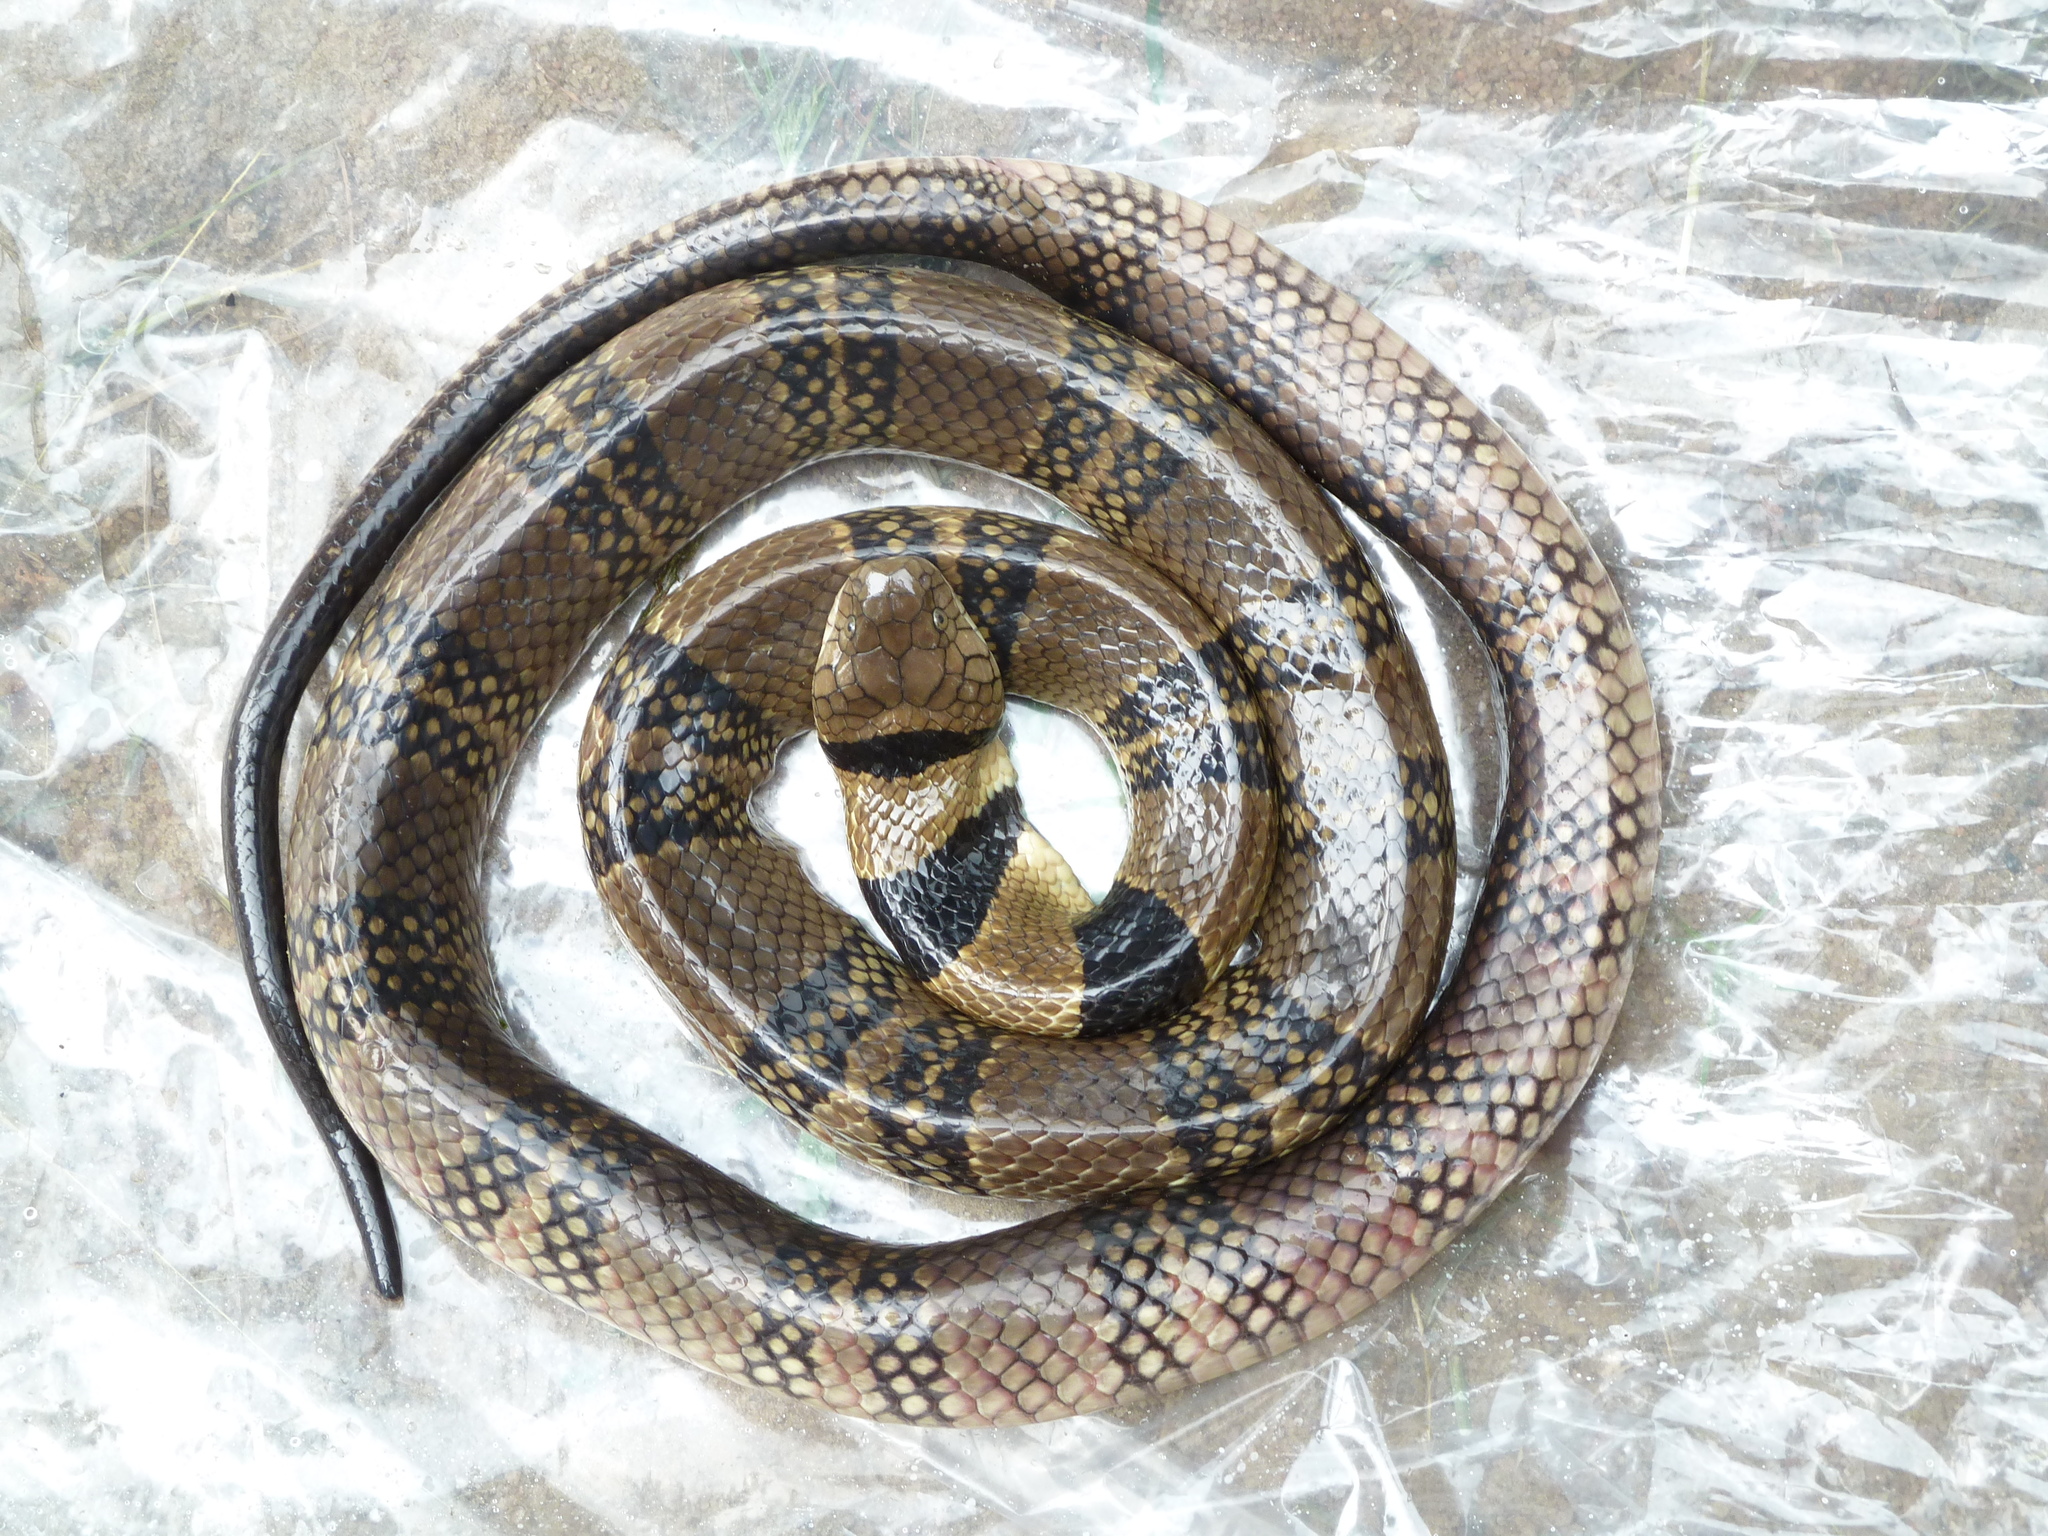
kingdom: Animalia
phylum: Chordata
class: Squamata
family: Elapidae
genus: Naja
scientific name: Naja annulata
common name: Ringed water cobra
